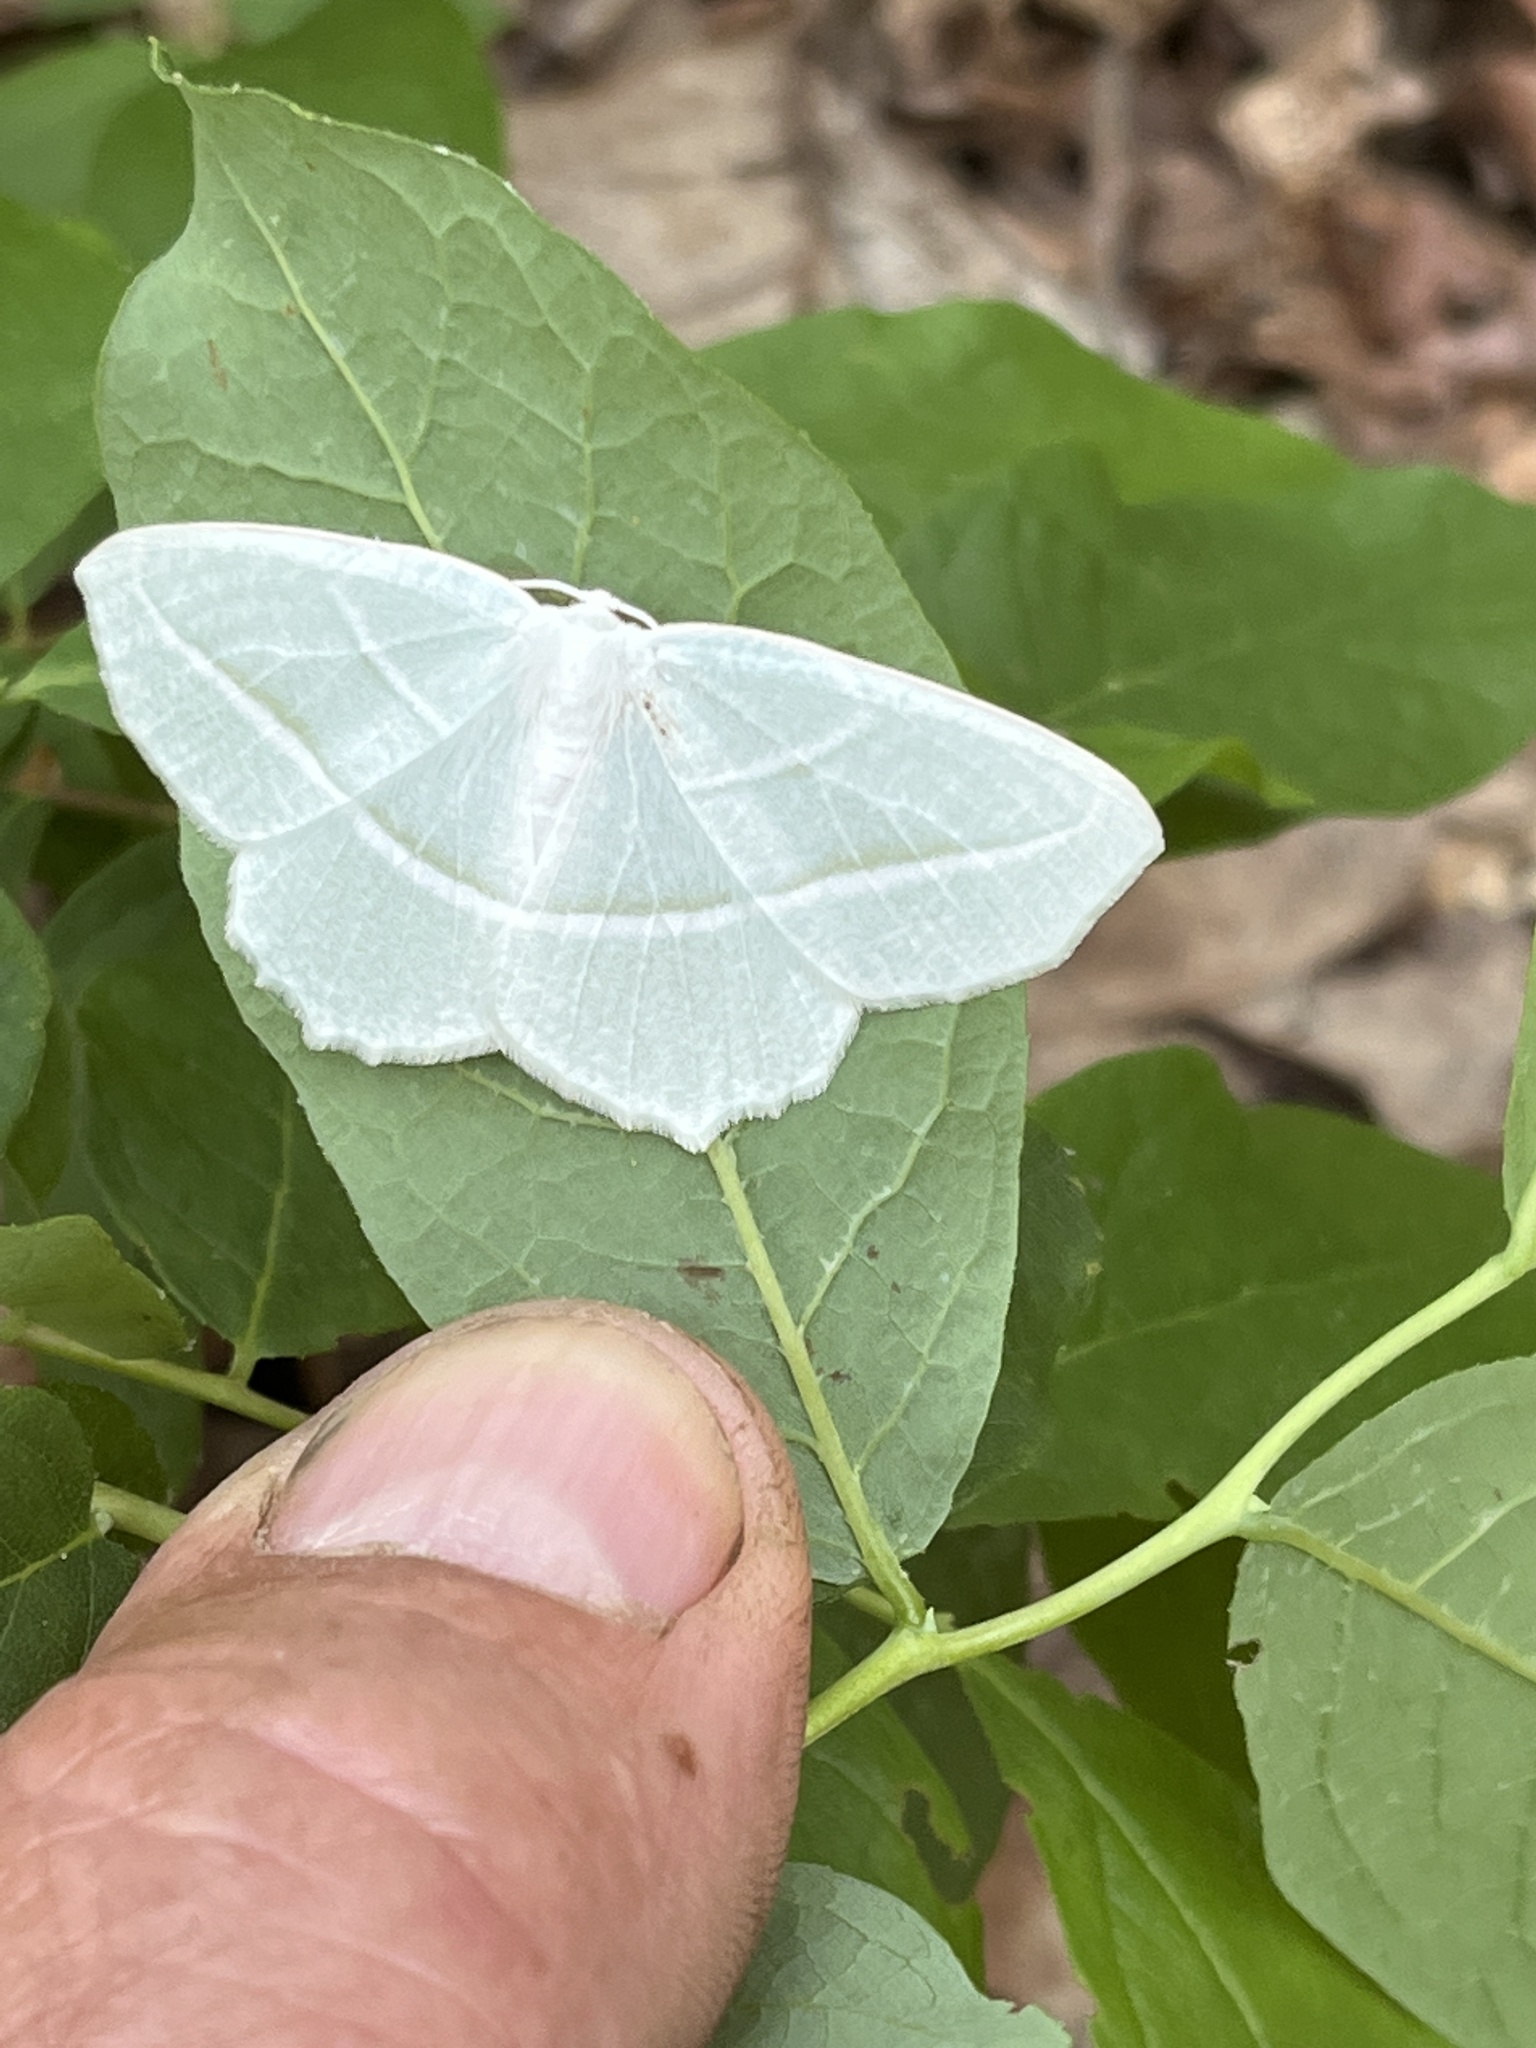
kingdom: Animalia
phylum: Arthropoda
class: Insecta
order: Lepidoptera
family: Geometridae
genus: Campaea
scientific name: Campaea perlata
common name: Fringed looper
